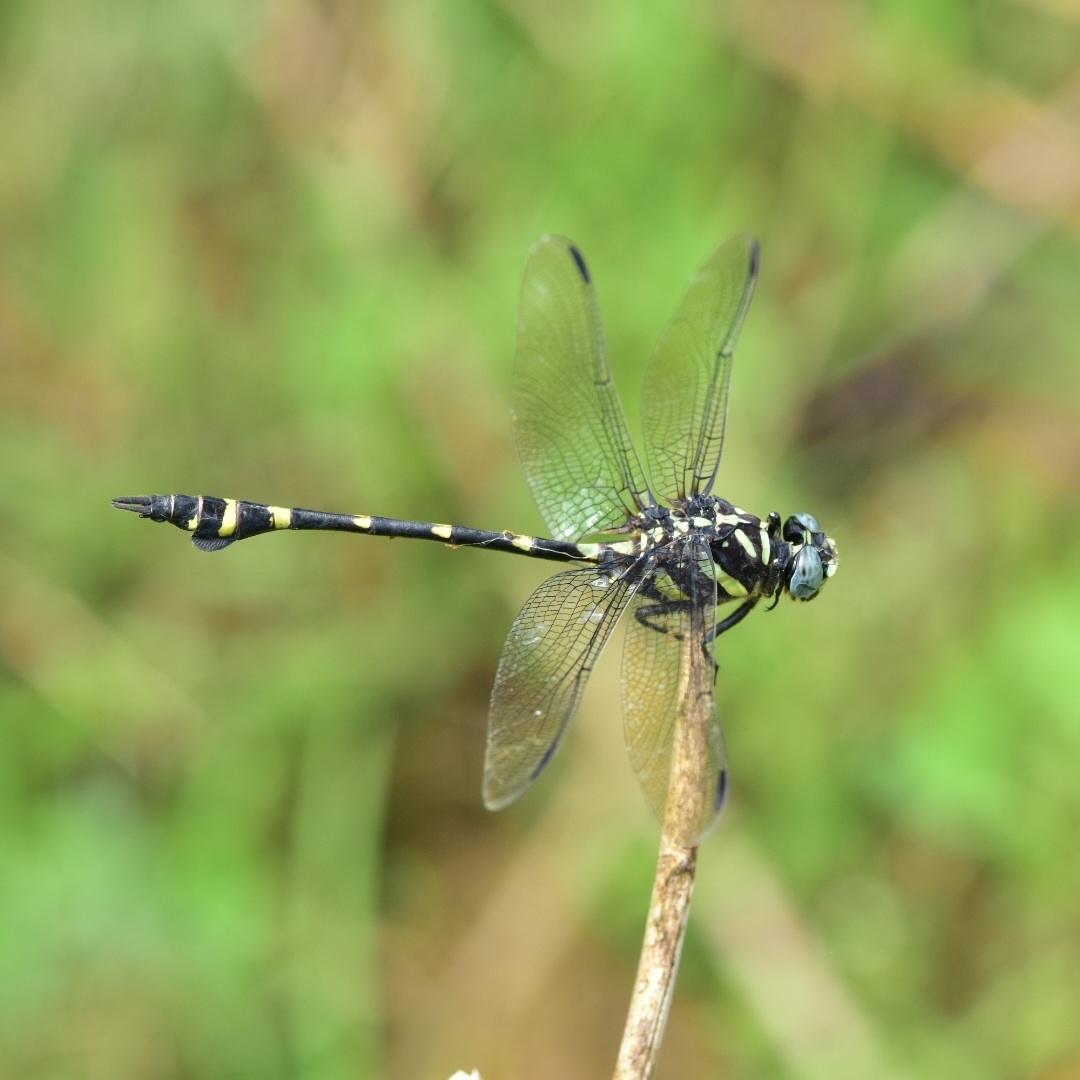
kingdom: Animalia
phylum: Arthropoda
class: Insecta
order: Odonata
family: Gomphidae
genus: Ictinogomphus
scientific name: Ictinogomphus rapax
